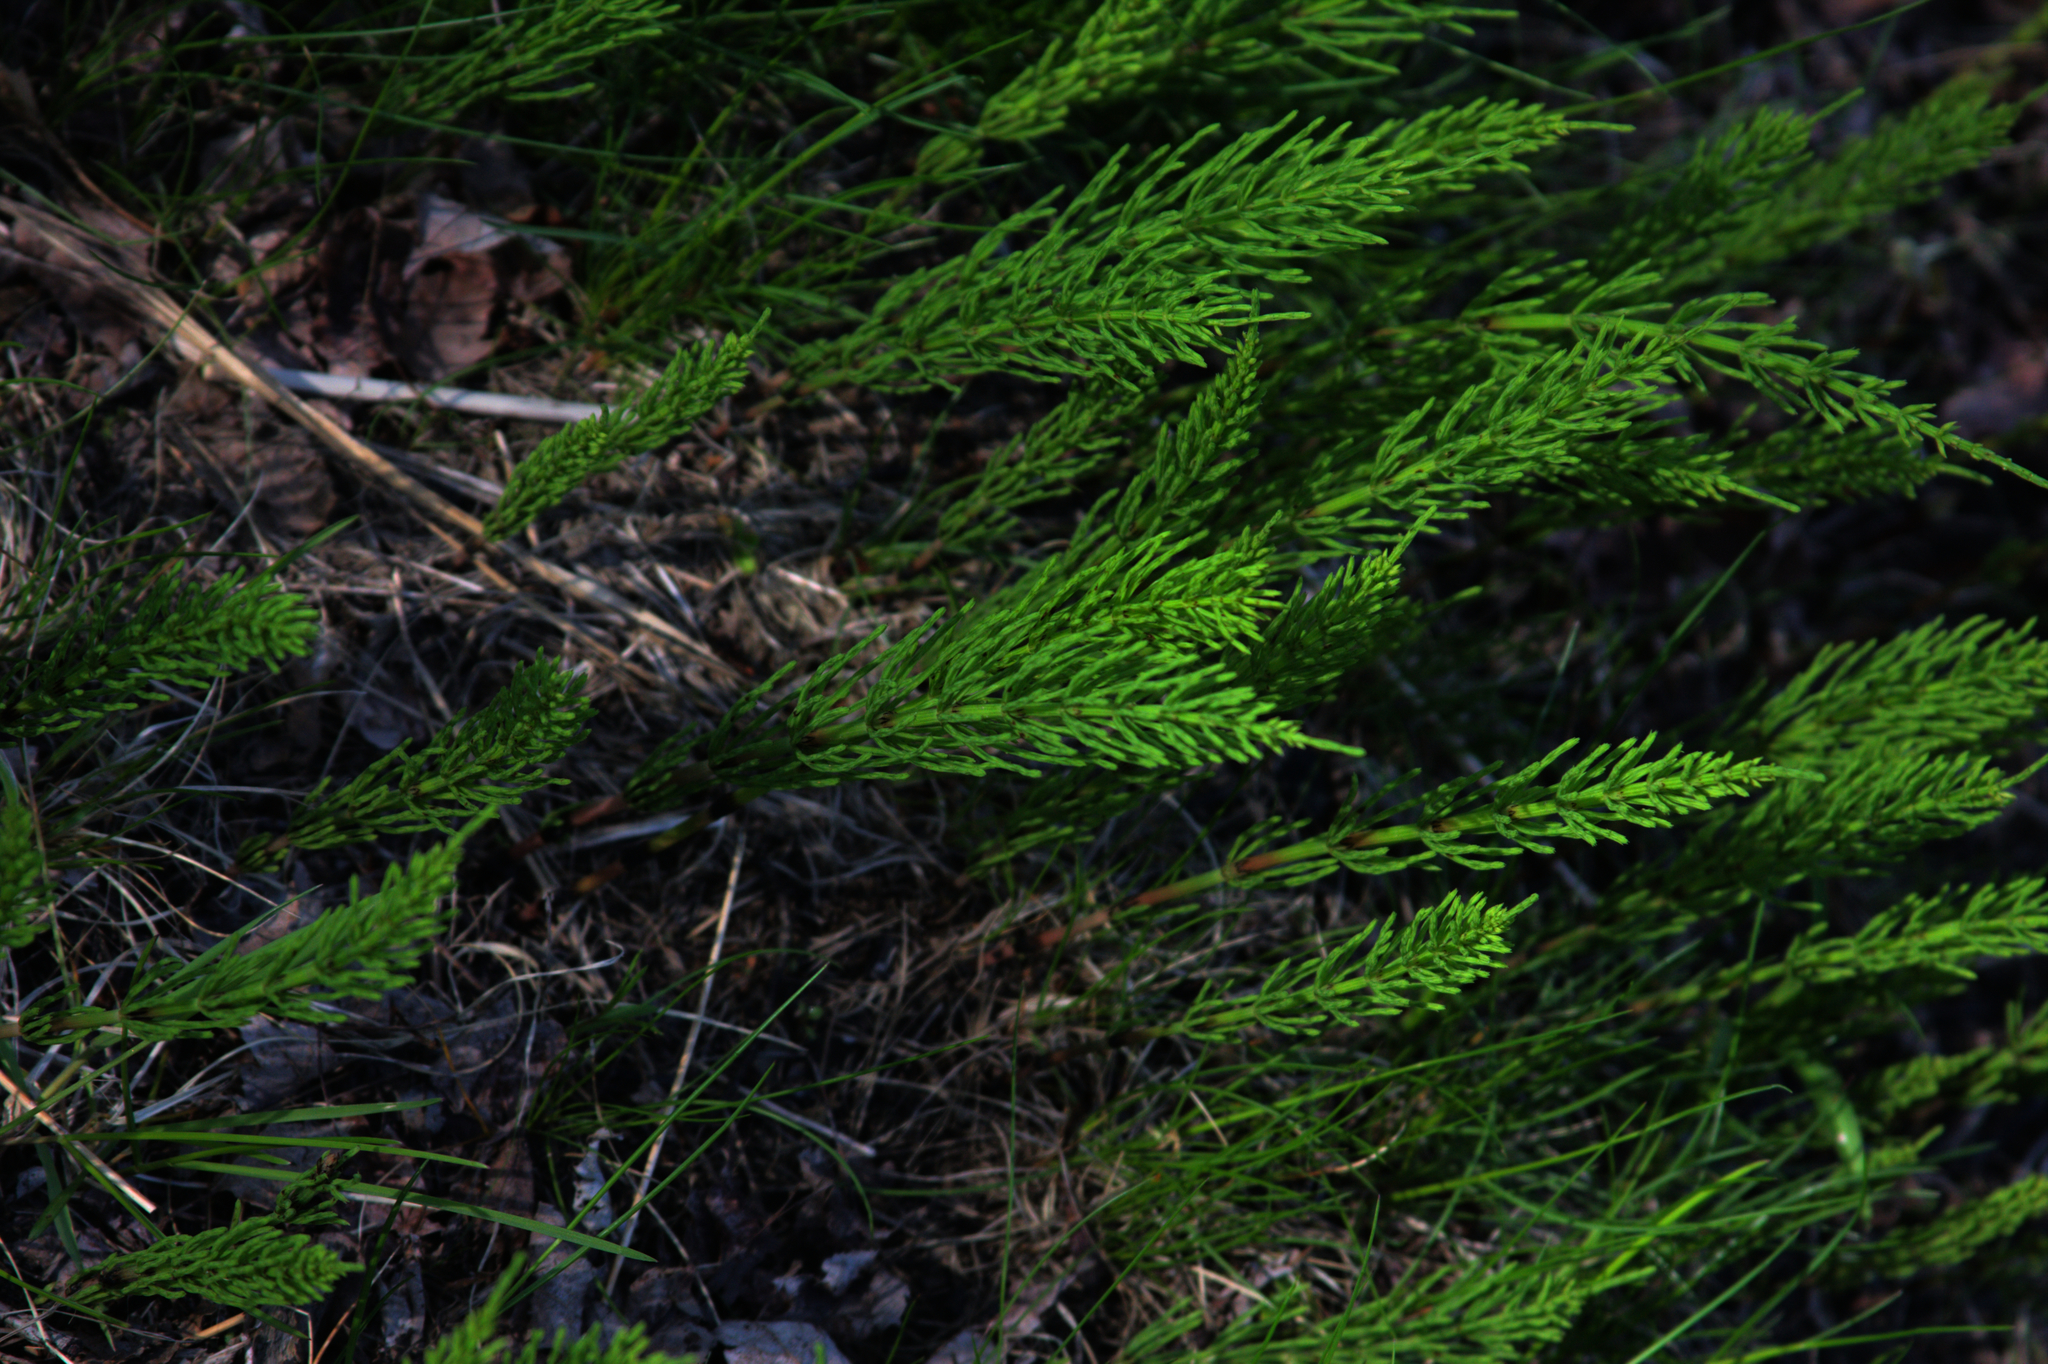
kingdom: Plantae
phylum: Tracheophyta
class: Polypodiopsida
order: Equisetales
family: Equisetaceae
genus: Equisetum
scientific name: Equisetum arvense
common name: Field horsetail
